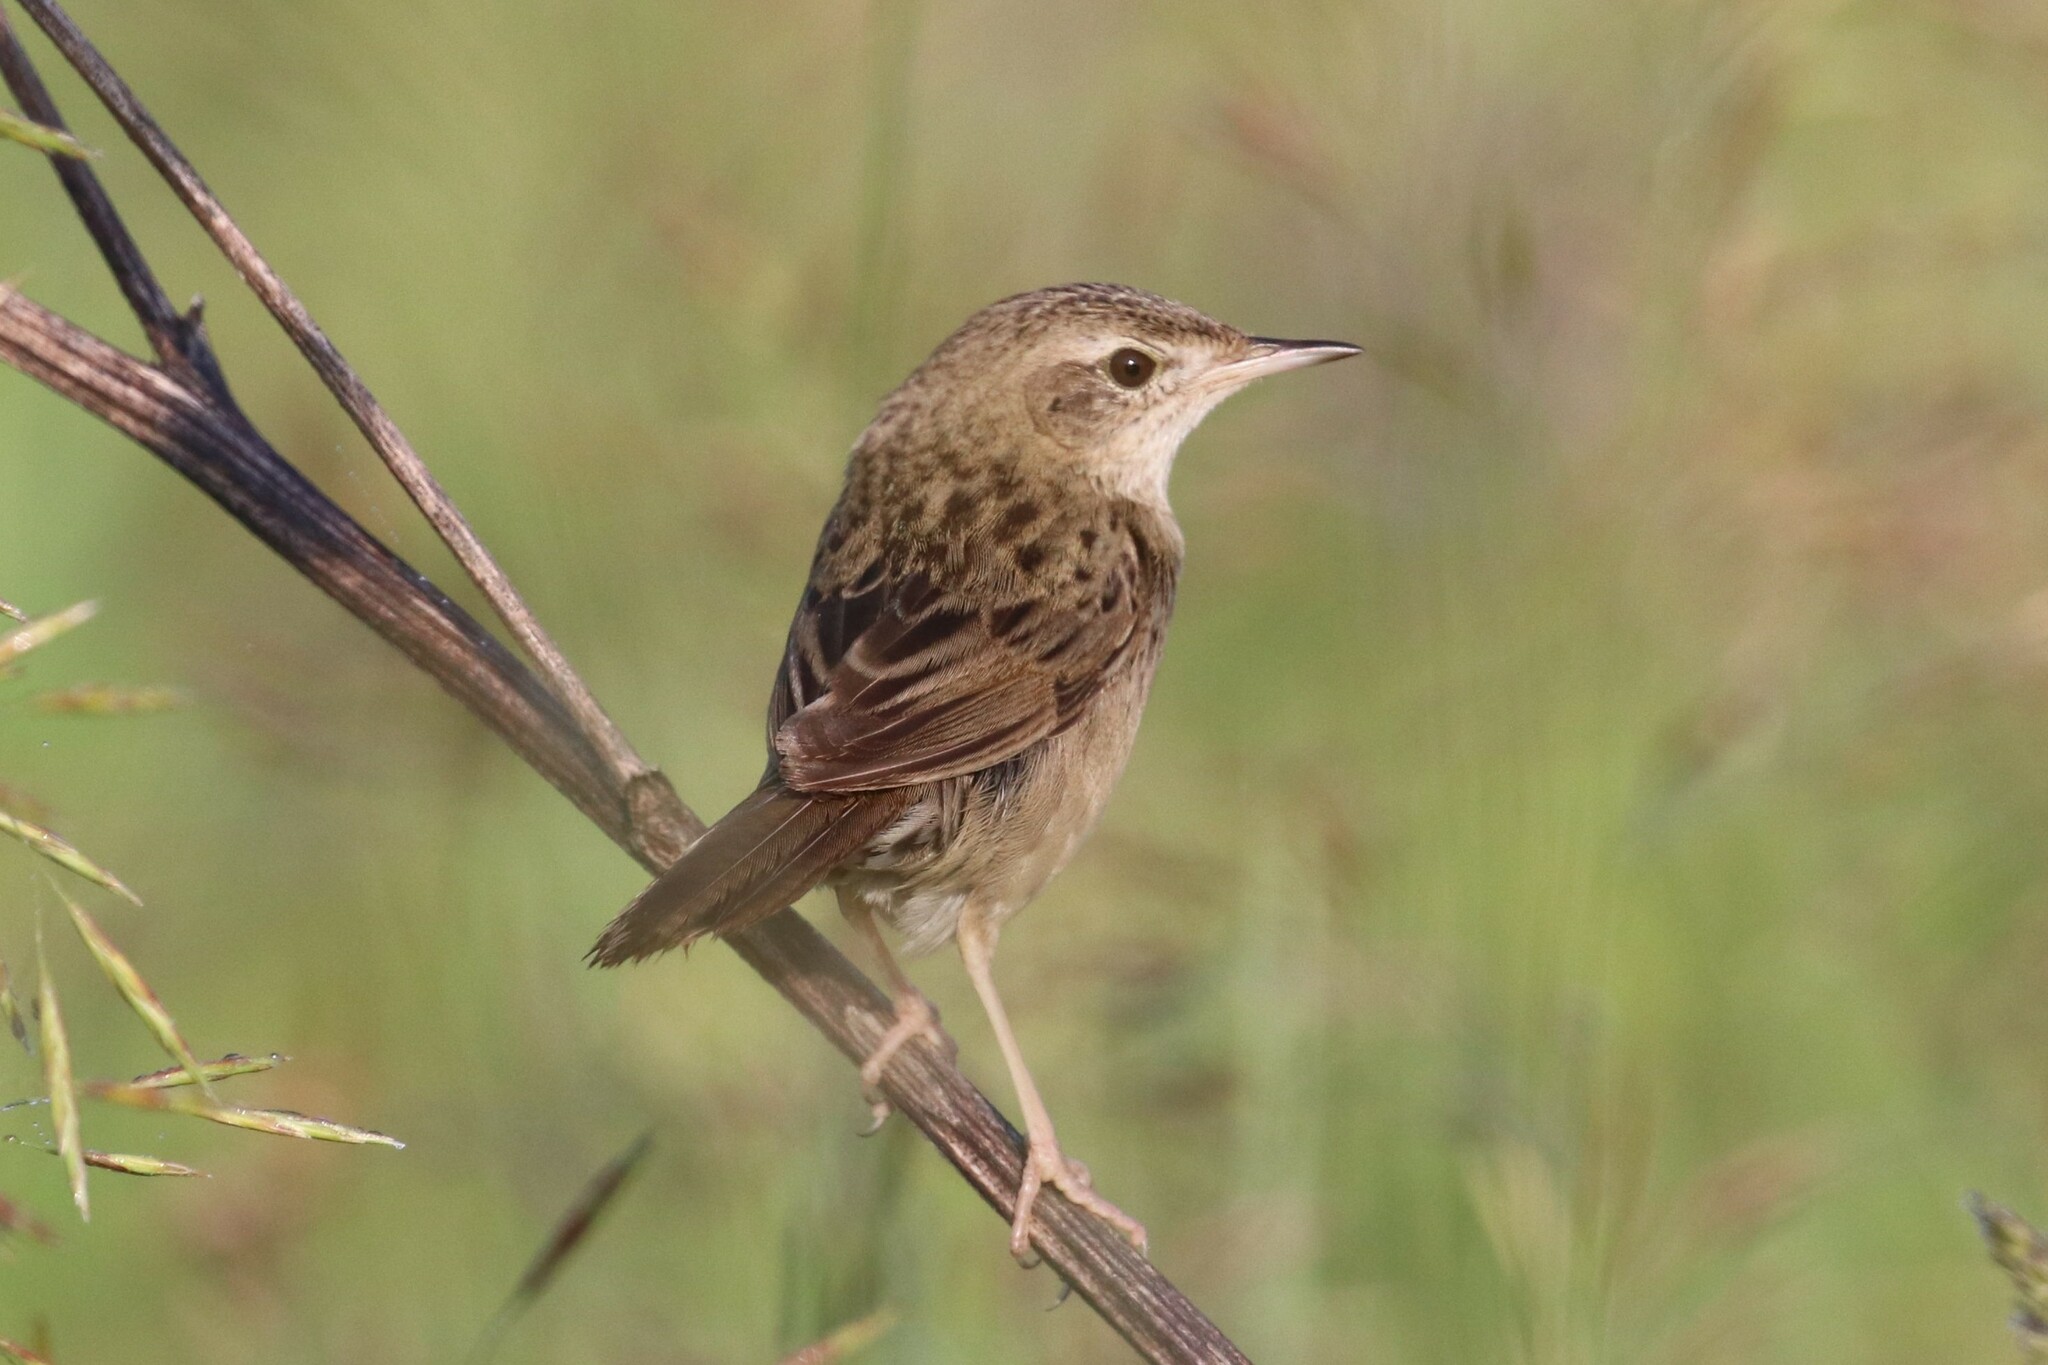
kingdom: Animalia
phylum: Chordata
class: Aves
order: Passeriformes
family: Locustellidae
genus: Locustella
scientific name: Locustella naevia
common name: Common grasshopper warbler
